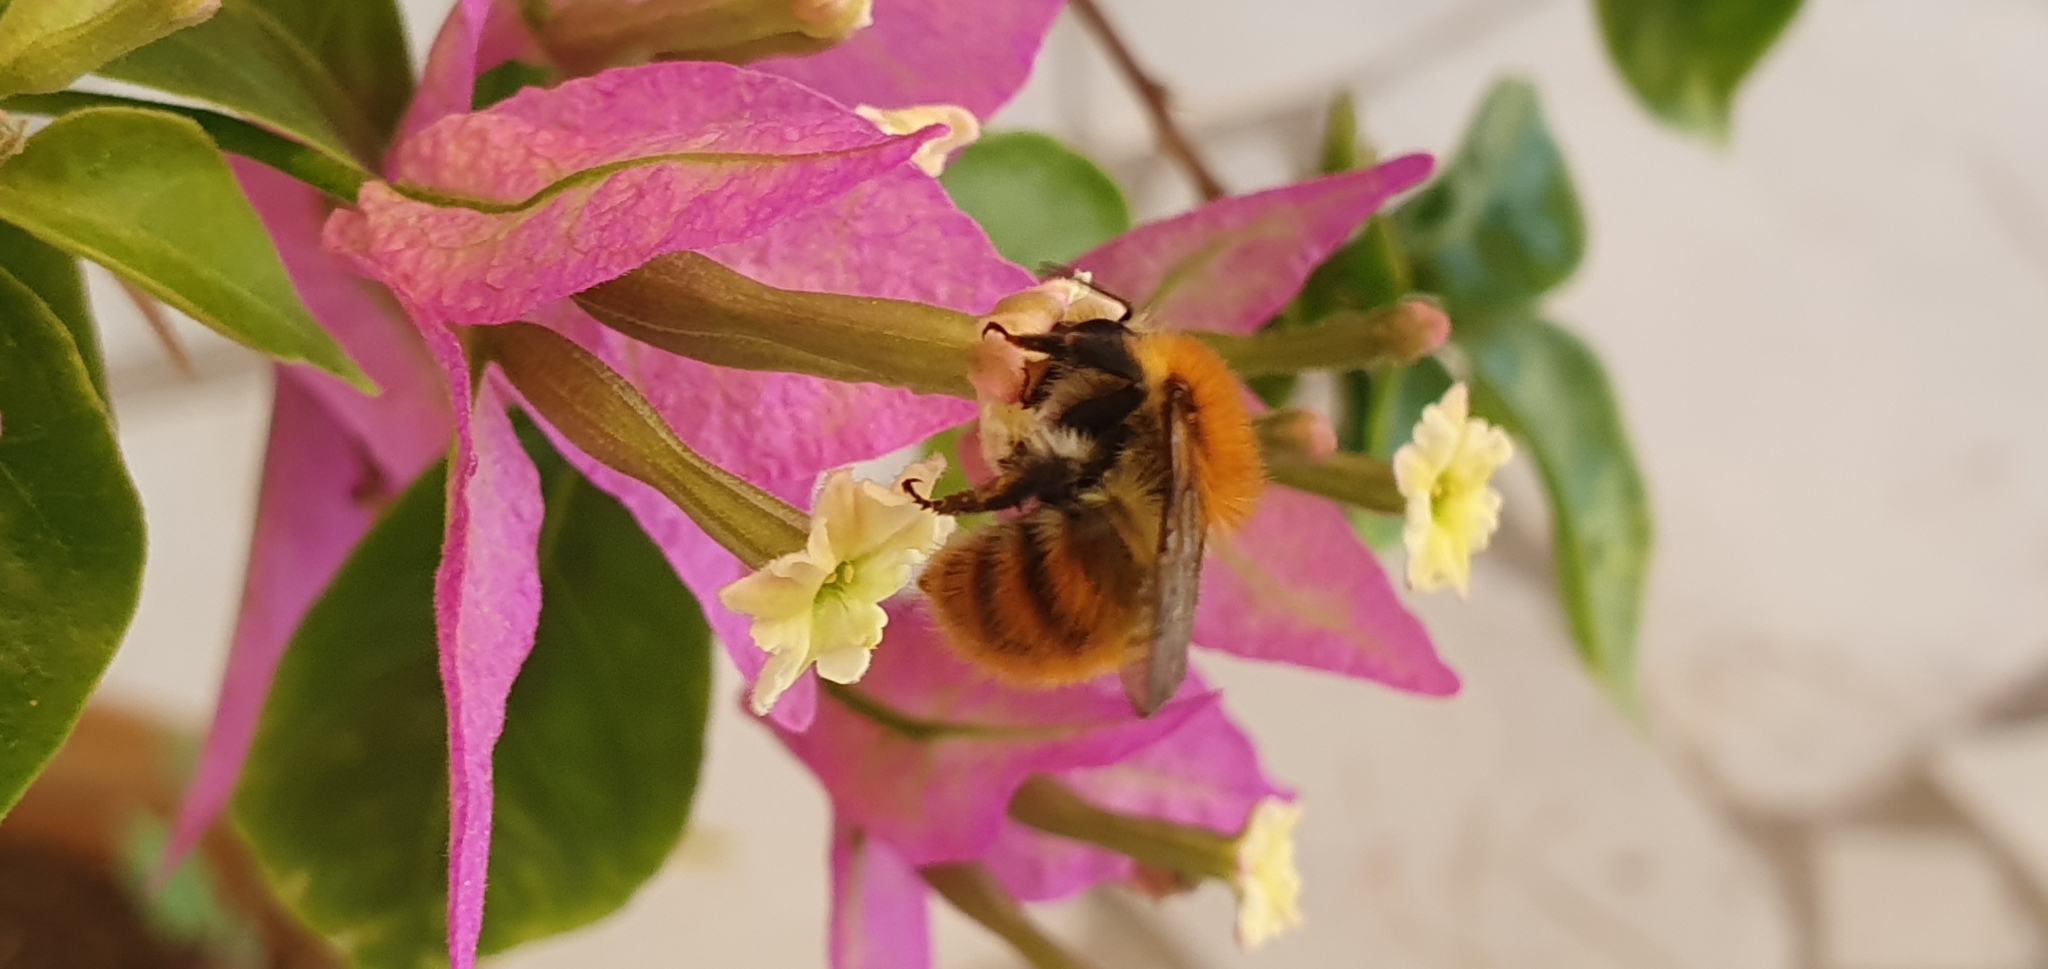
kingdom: Animalia
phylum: Arthropoda
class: Insecta
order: Hymenoptera
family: Apidae
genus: Bombus
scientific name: Bombus pascuorum
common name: Common carder bee
